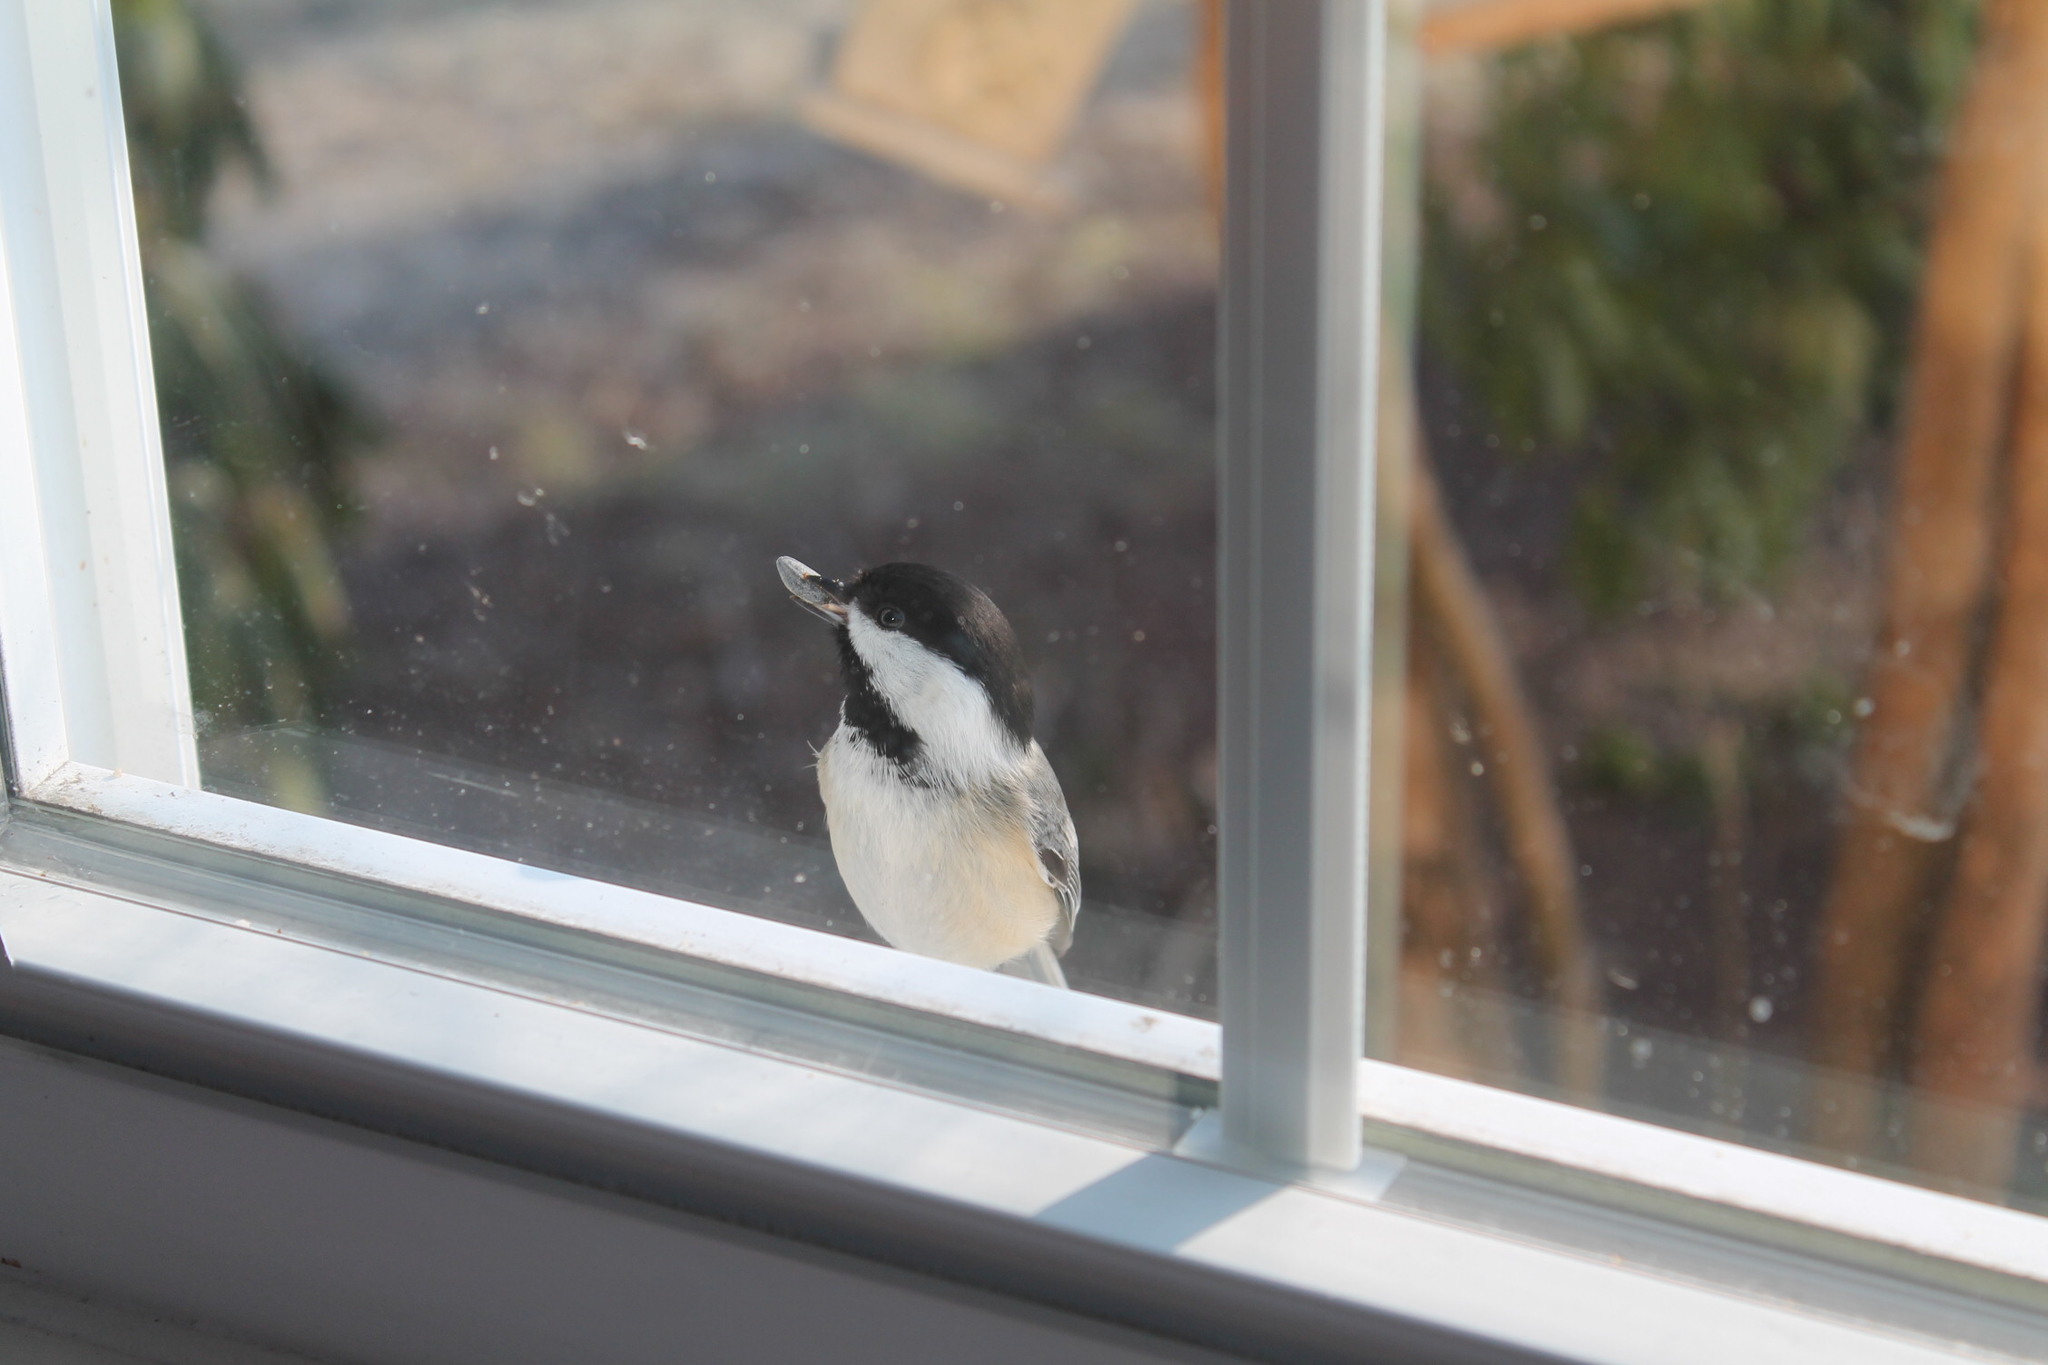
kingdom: Animalia
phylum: Chordata
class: Aves
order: Passeriformes
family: Paridae
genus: Poecile
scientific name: Poecile atricapillus
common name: Black-capped chickadee
